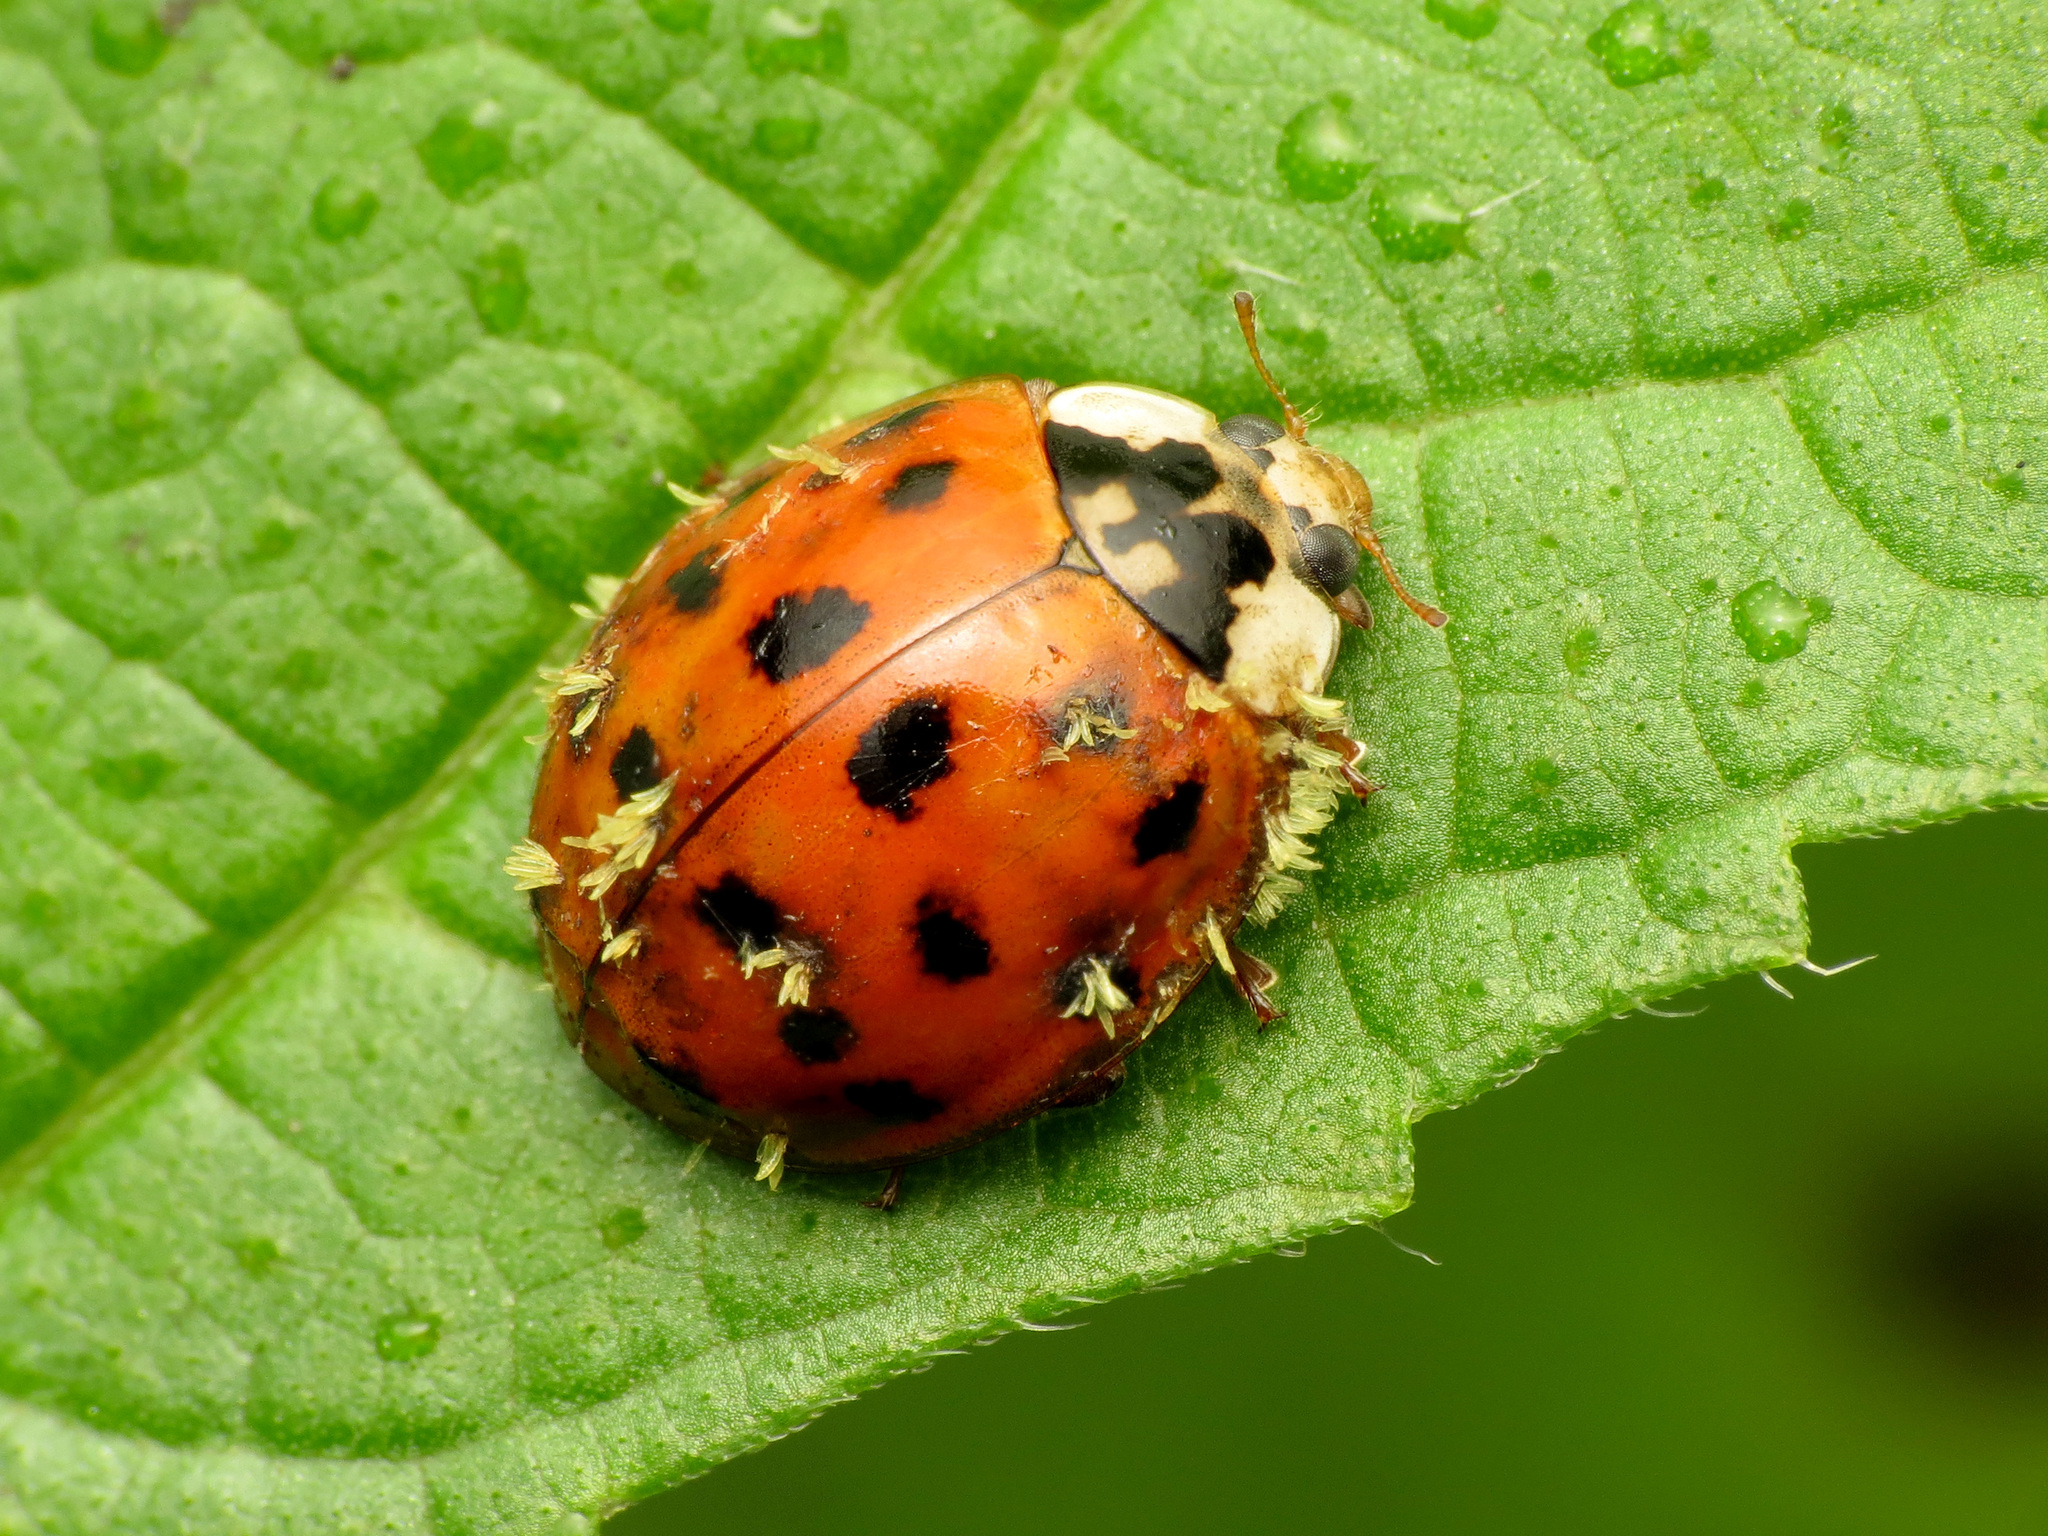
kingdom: Fungi
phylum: Ascomycota
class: Laboulbeniomycetes
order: Laboulbeniales
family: Laboulbeniaceae
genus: Hesperomyces
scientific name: Hesperomyces harmoniae
